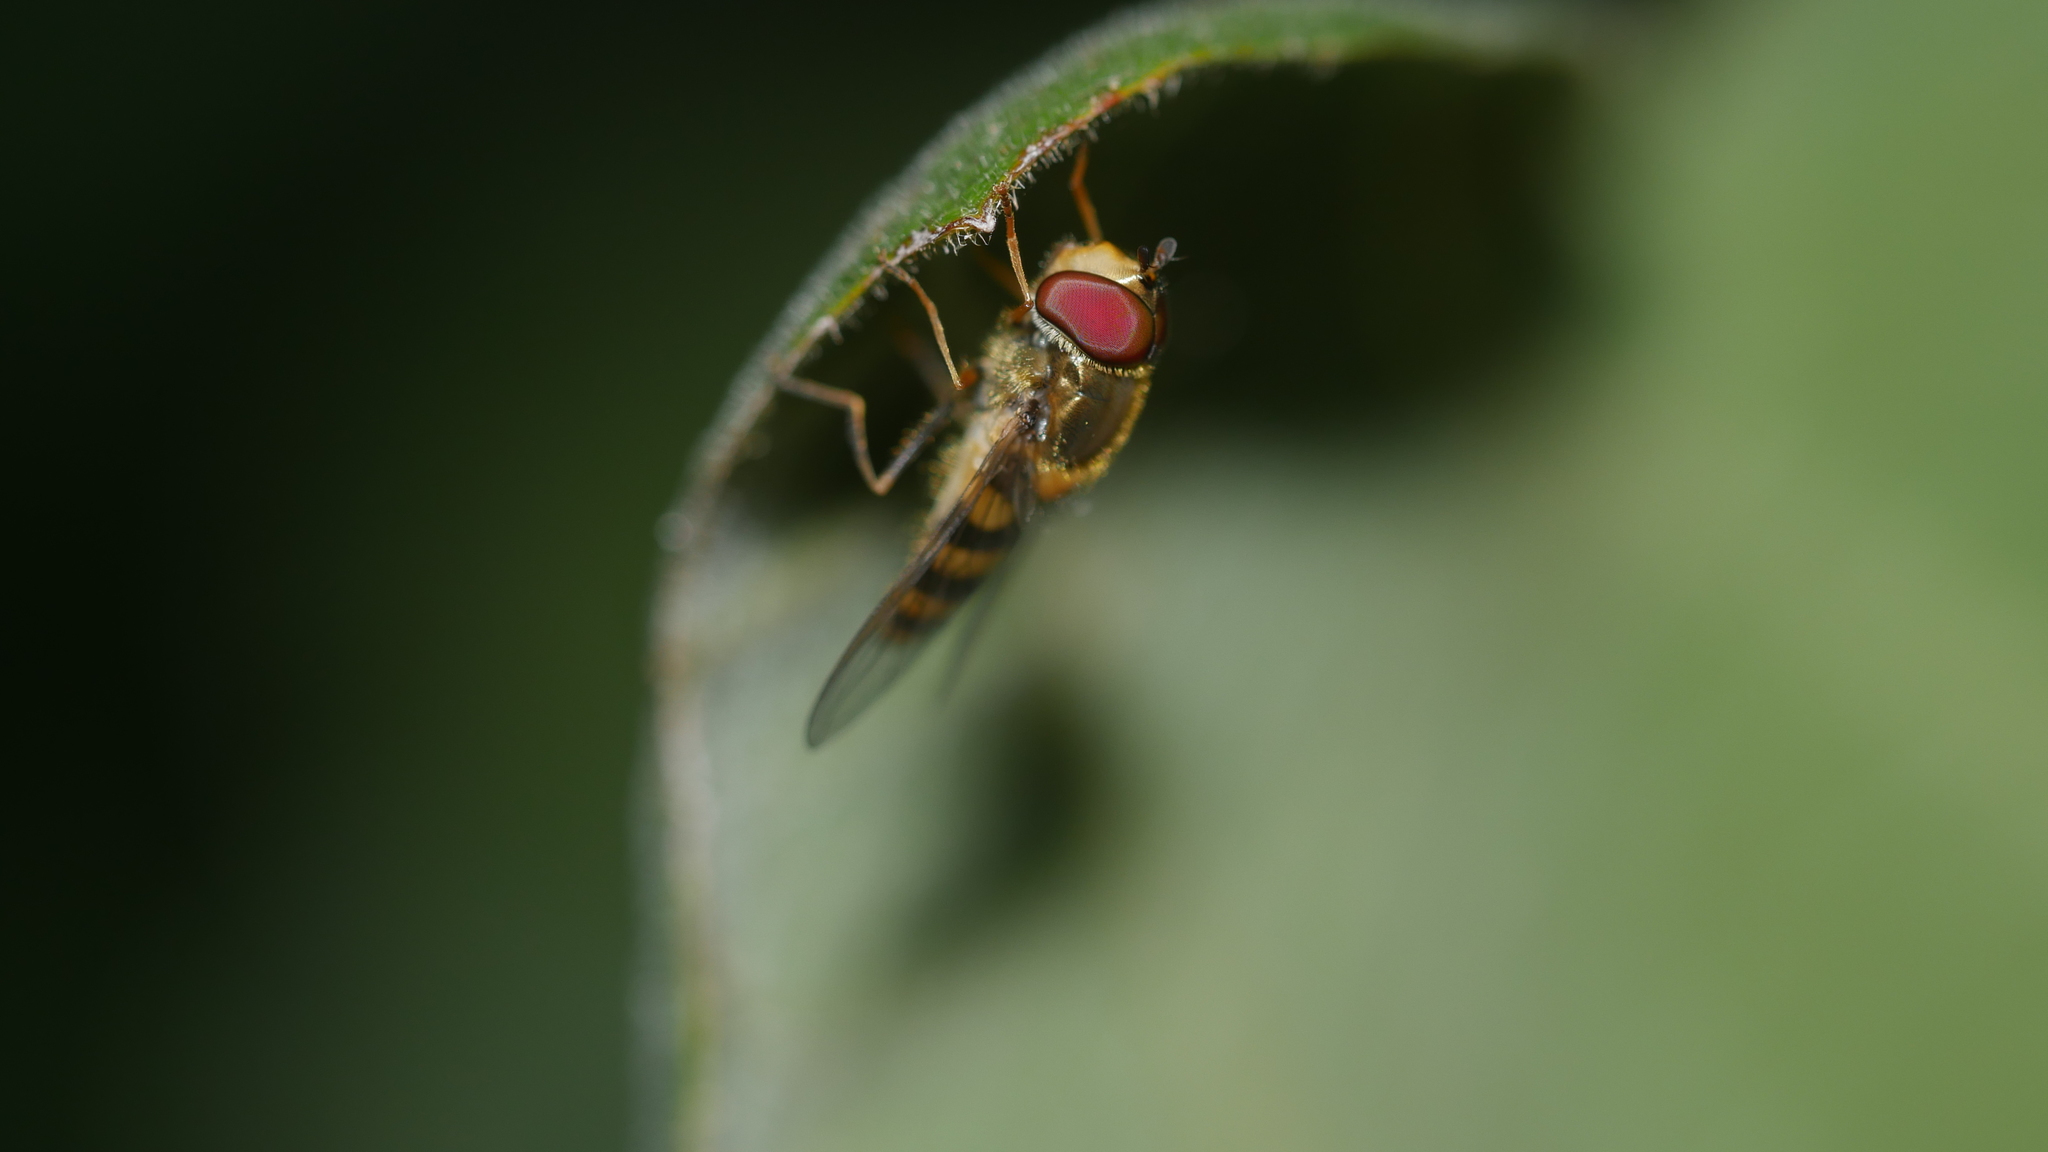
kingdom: Animalia
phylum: Arthropoda
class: Insecta
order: Diptera
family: Syrphidae
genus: Syrphus
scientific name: Syrphus
